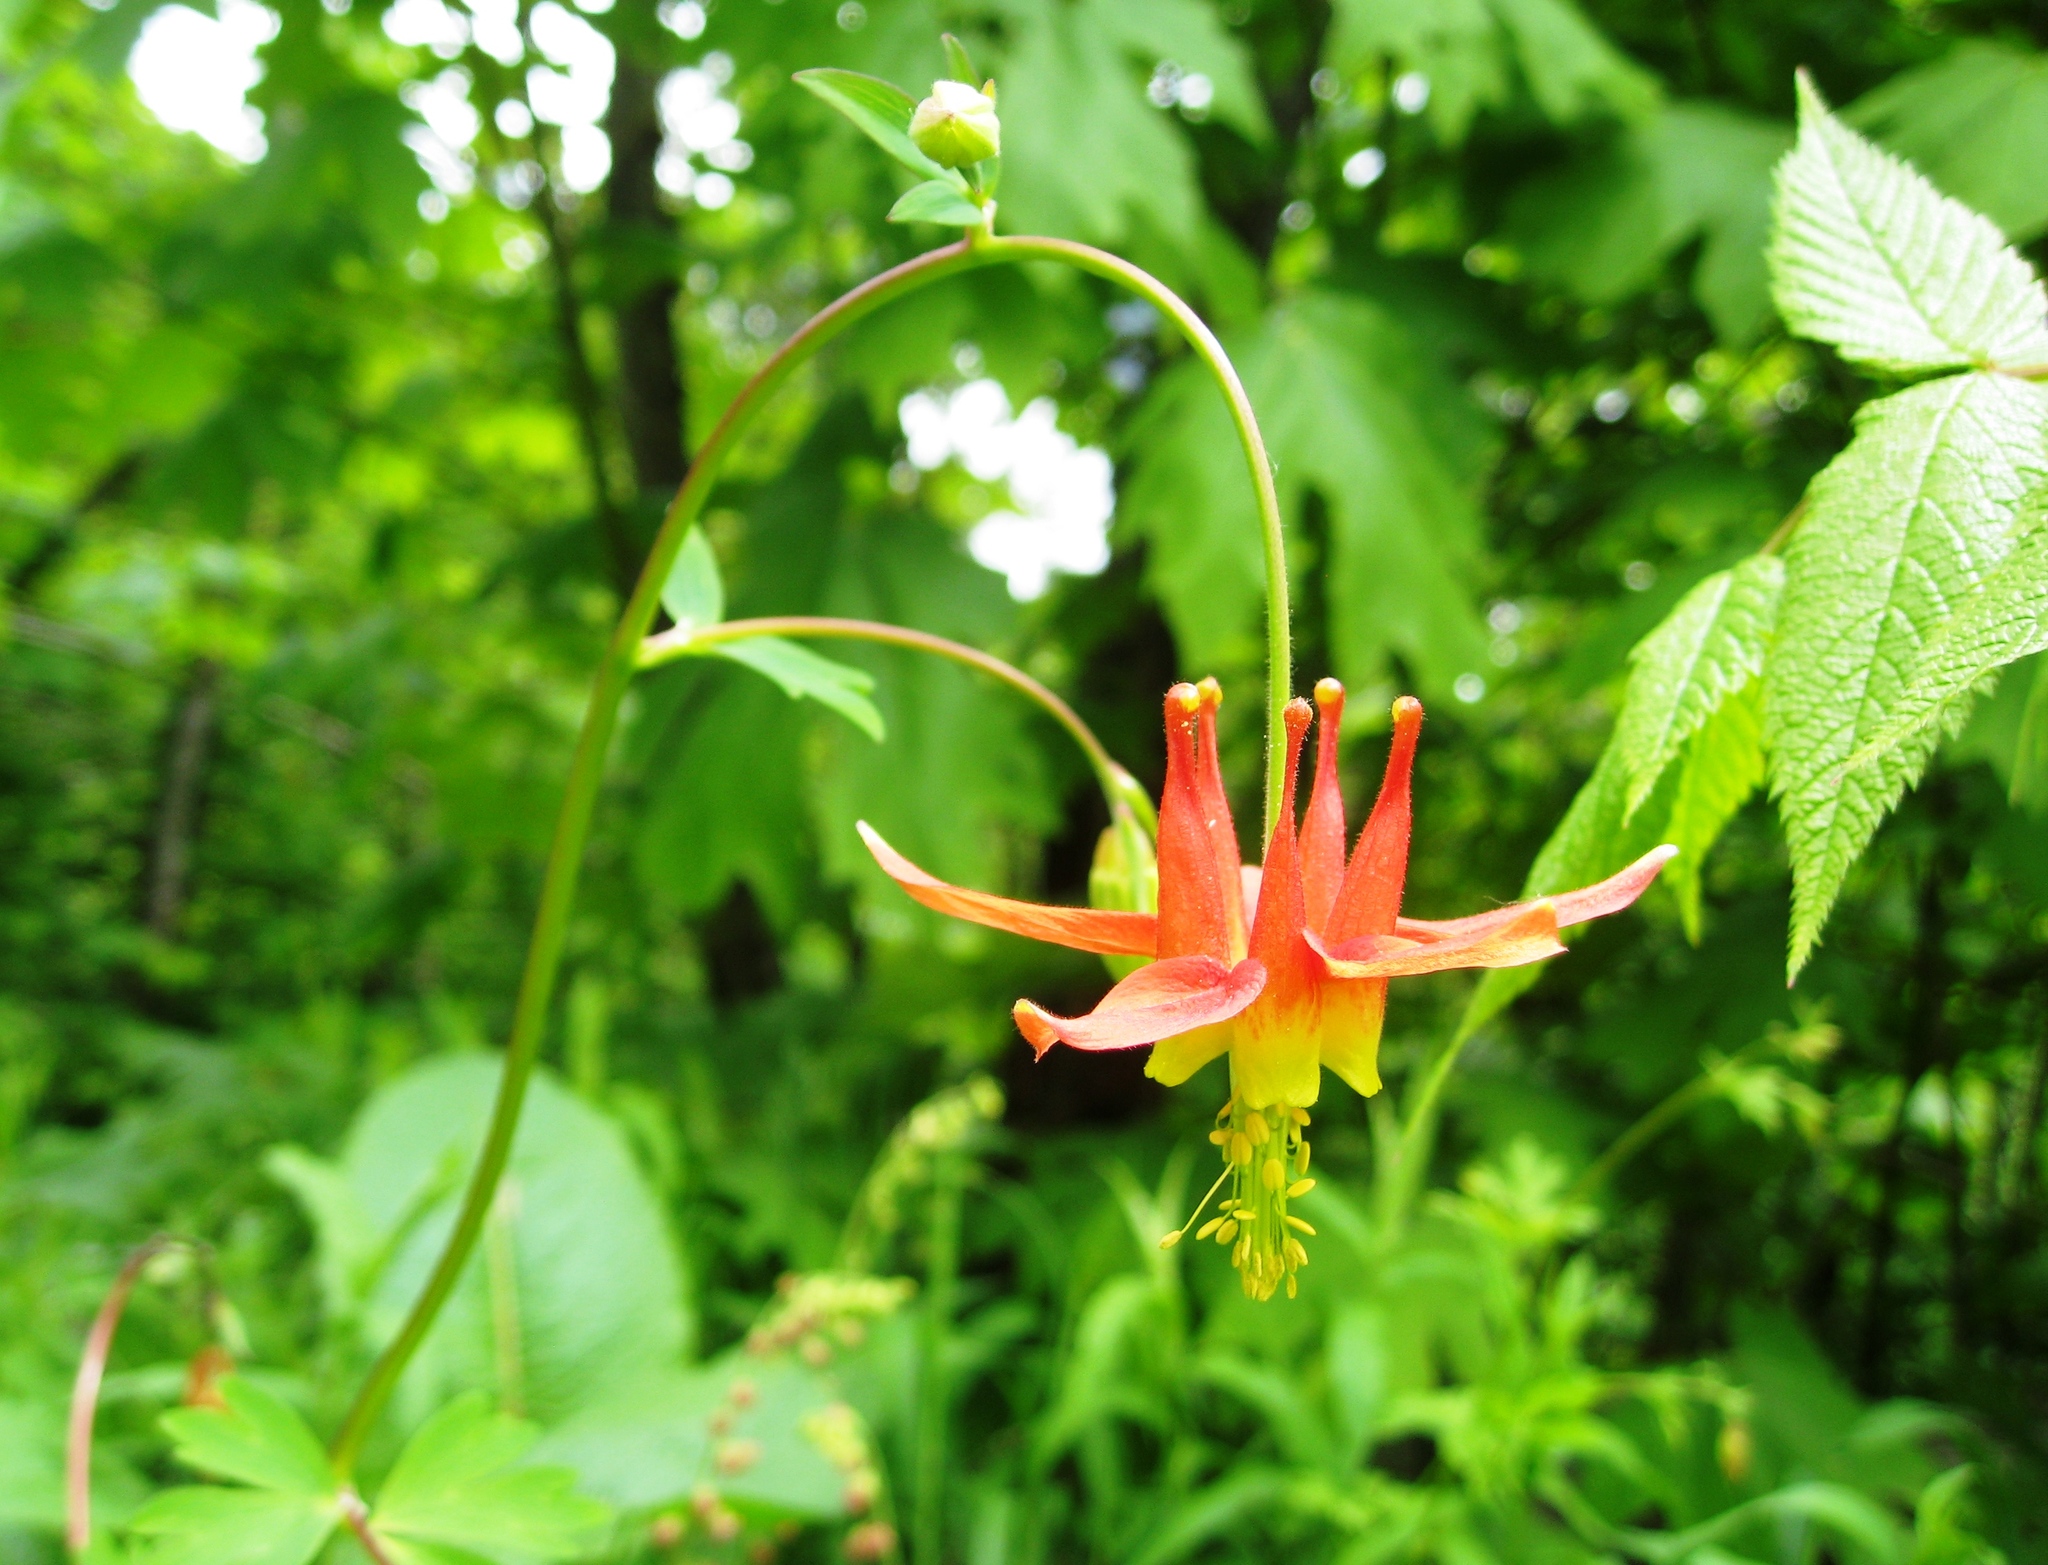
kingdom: Plantae
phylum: Tracheophyta
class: Magnoliopsida
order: Ranunculales
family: Ranunculaceae
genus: Aquilegia
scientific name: Aquilegia formosa
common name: Sitka columbine
